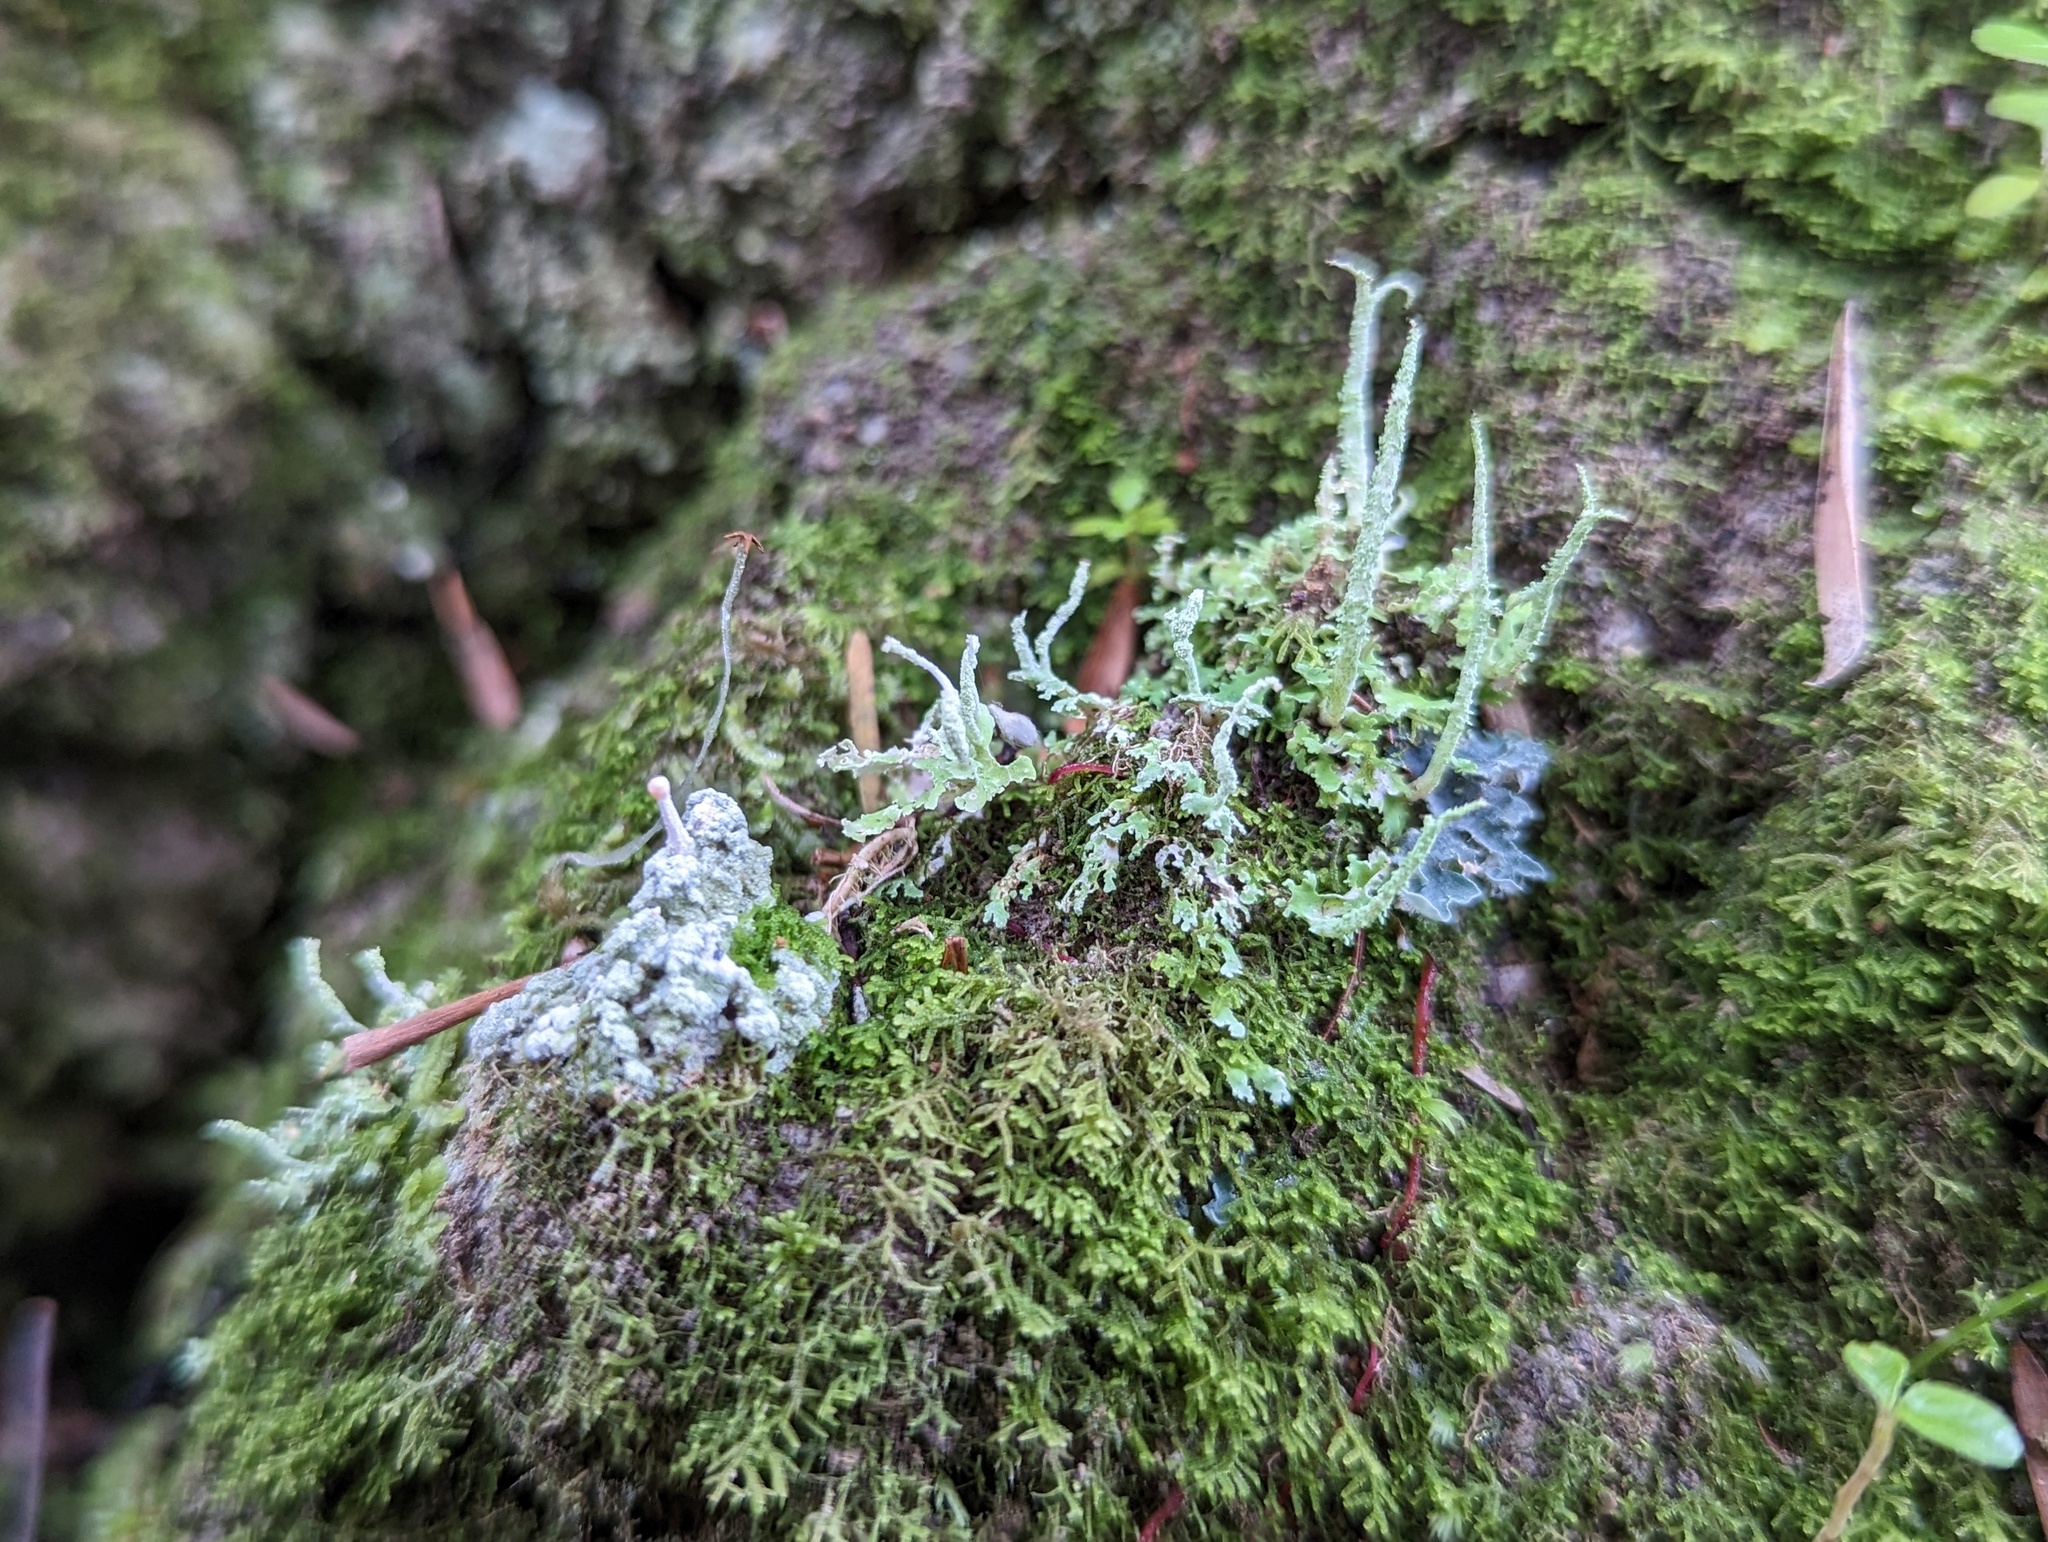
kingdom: Fungi
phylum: Ascomycota
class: Lecanoromycetes
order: Pertusariales
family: Icmadophilaceae
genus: Dibaeis
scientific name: Dibaeis arcuata
